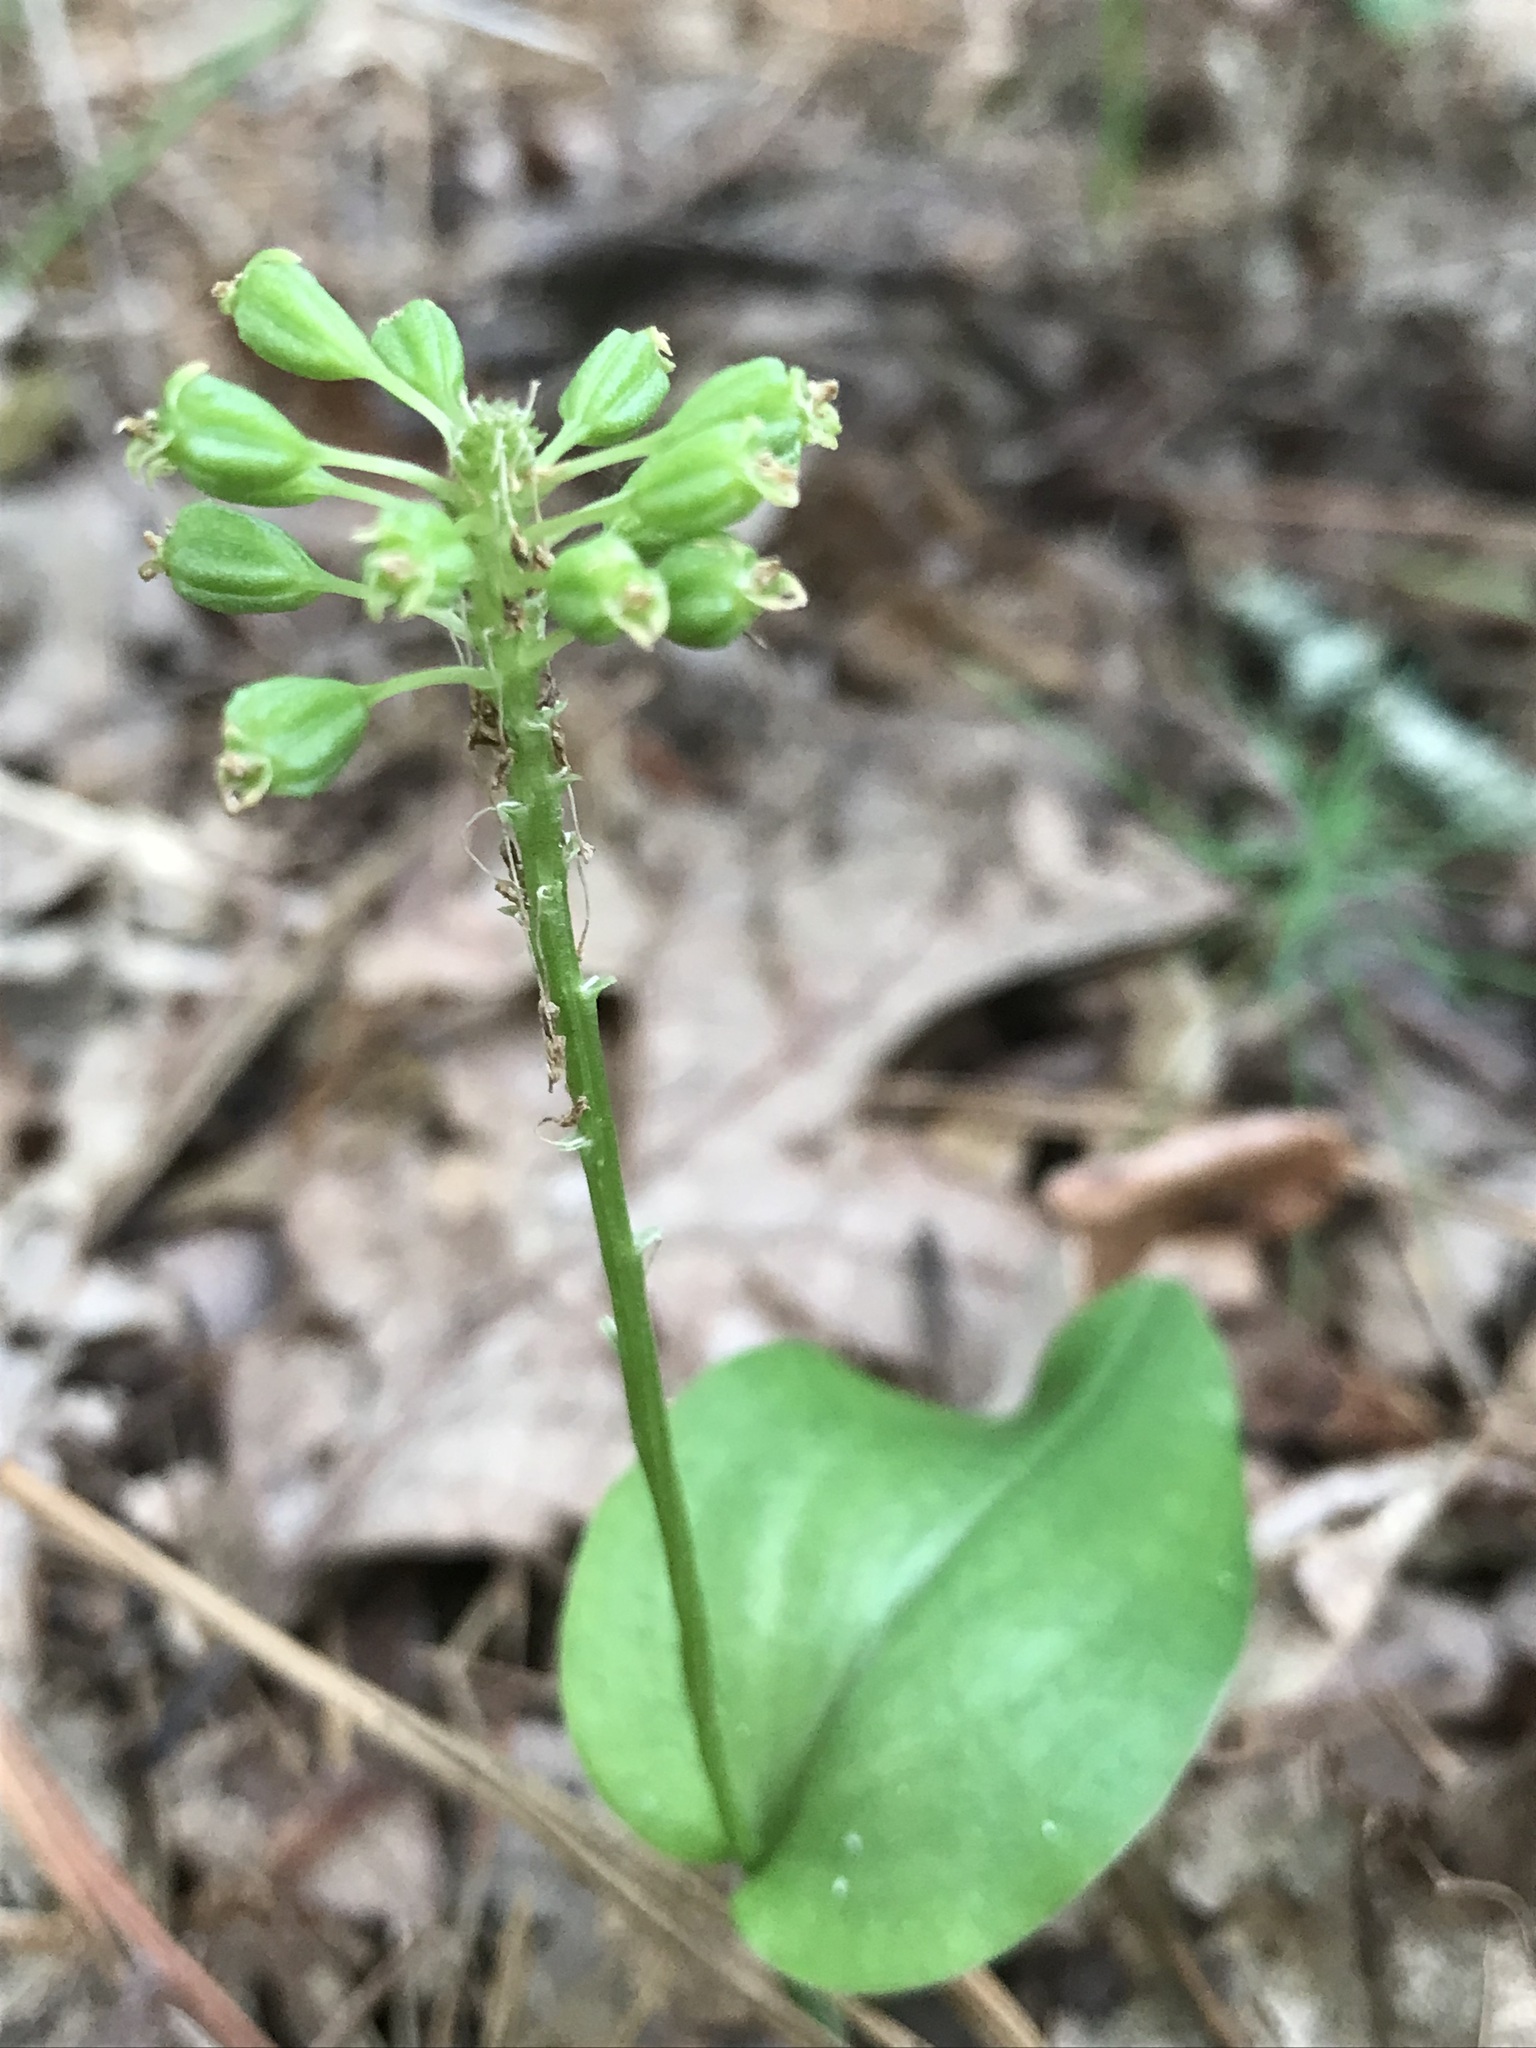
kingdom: Plantae
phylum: Tracheophyta
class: Liliopsida
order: Asparagales
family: Orchidaceae
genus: Malaxis
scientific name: Malaxis unifolia
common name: Green adder's-mouth
